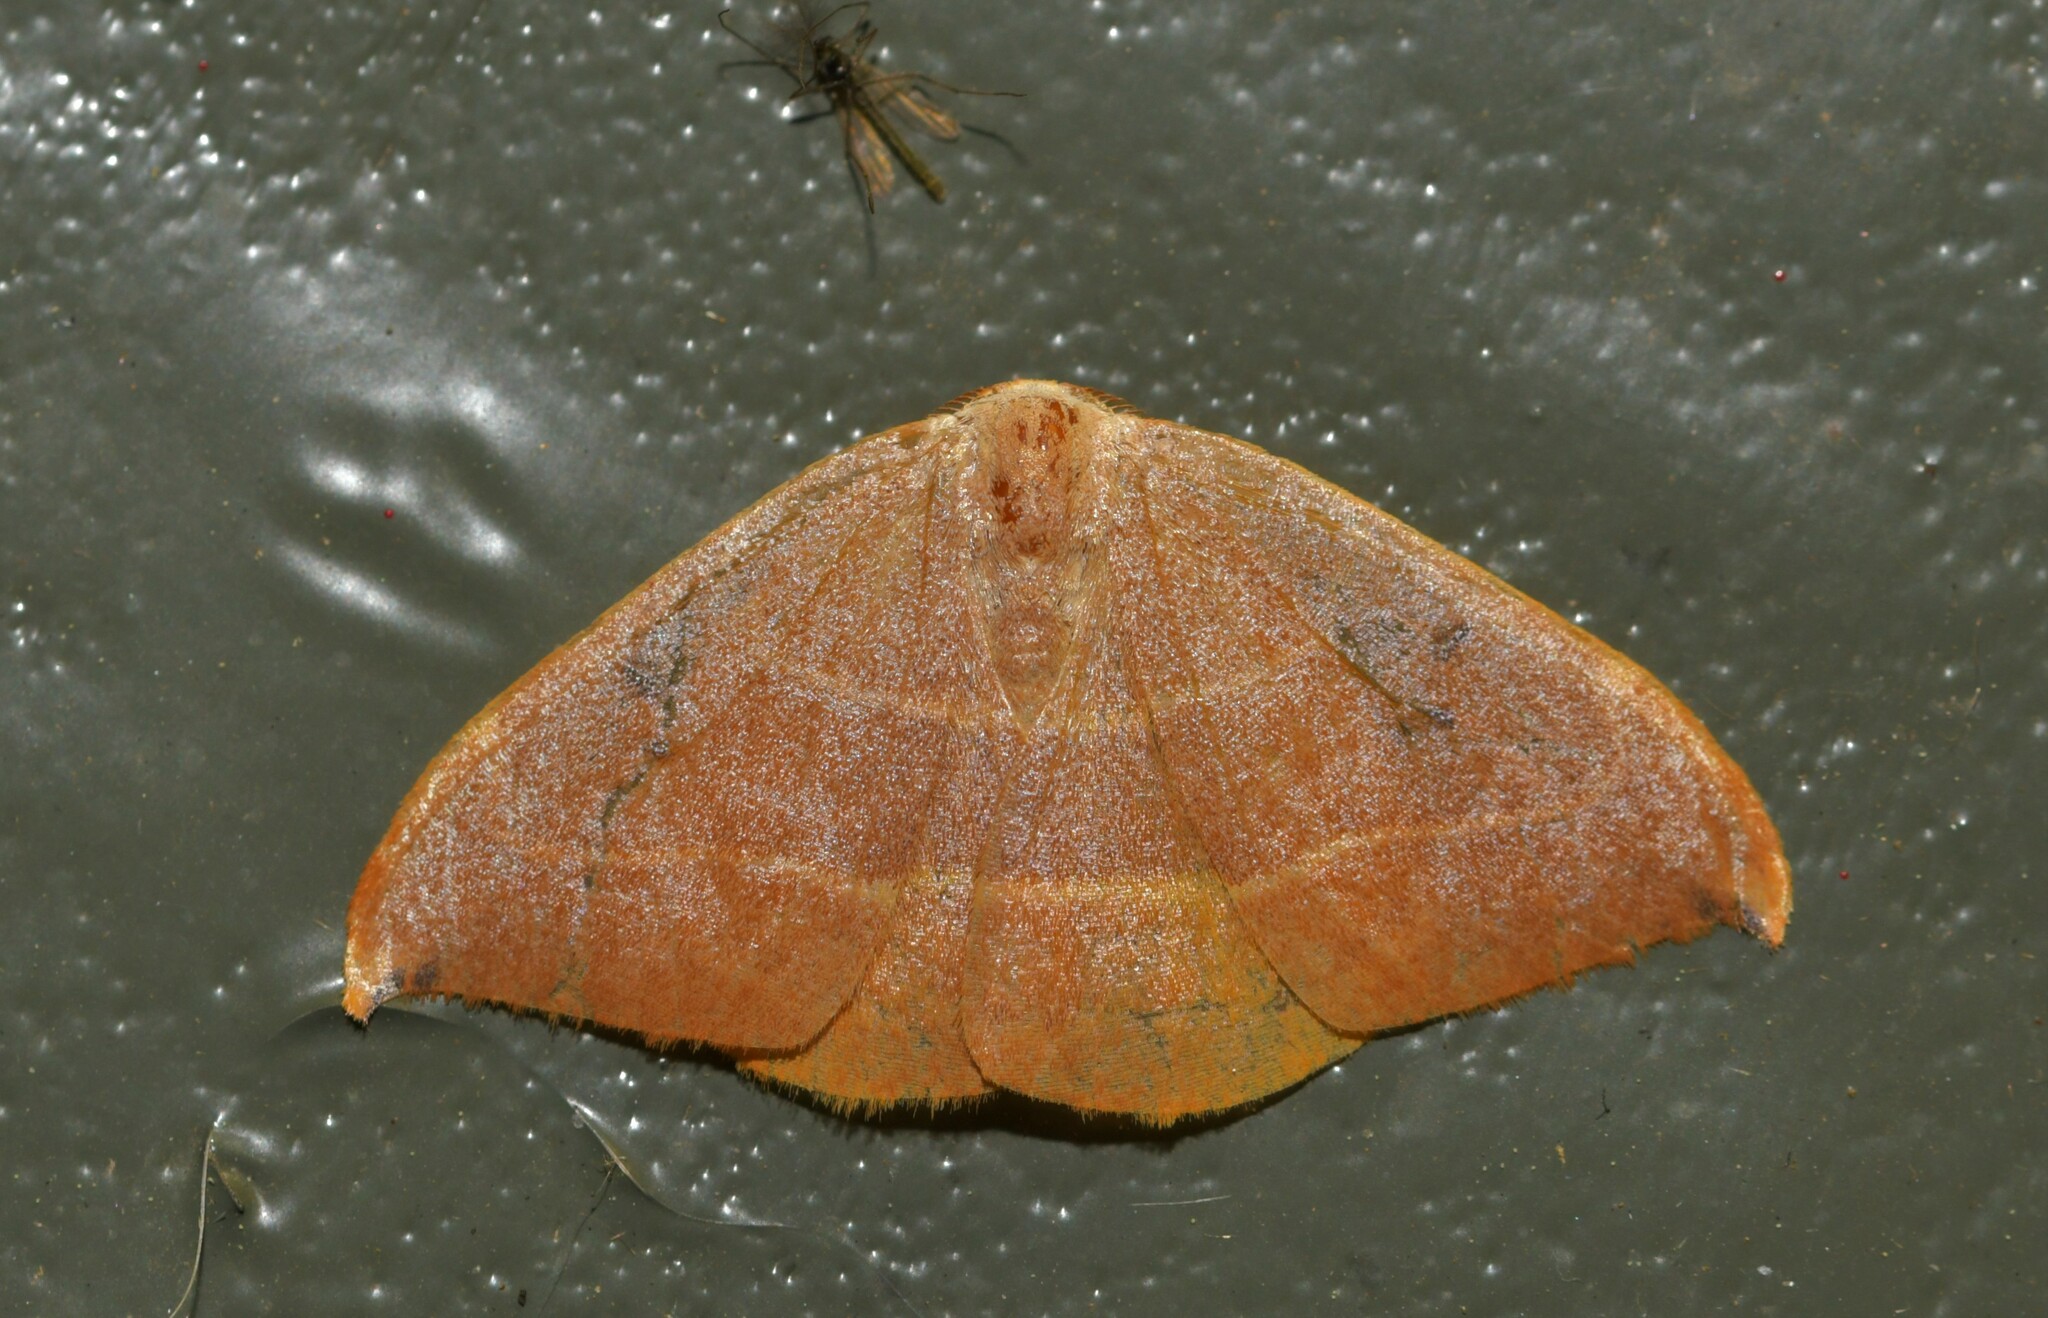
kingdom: Animalia
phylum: Arthropoda
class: Insecta
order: Lepidoptera
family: Drepanidae
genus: Watsonalla
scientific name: Watsonalla uncinula
